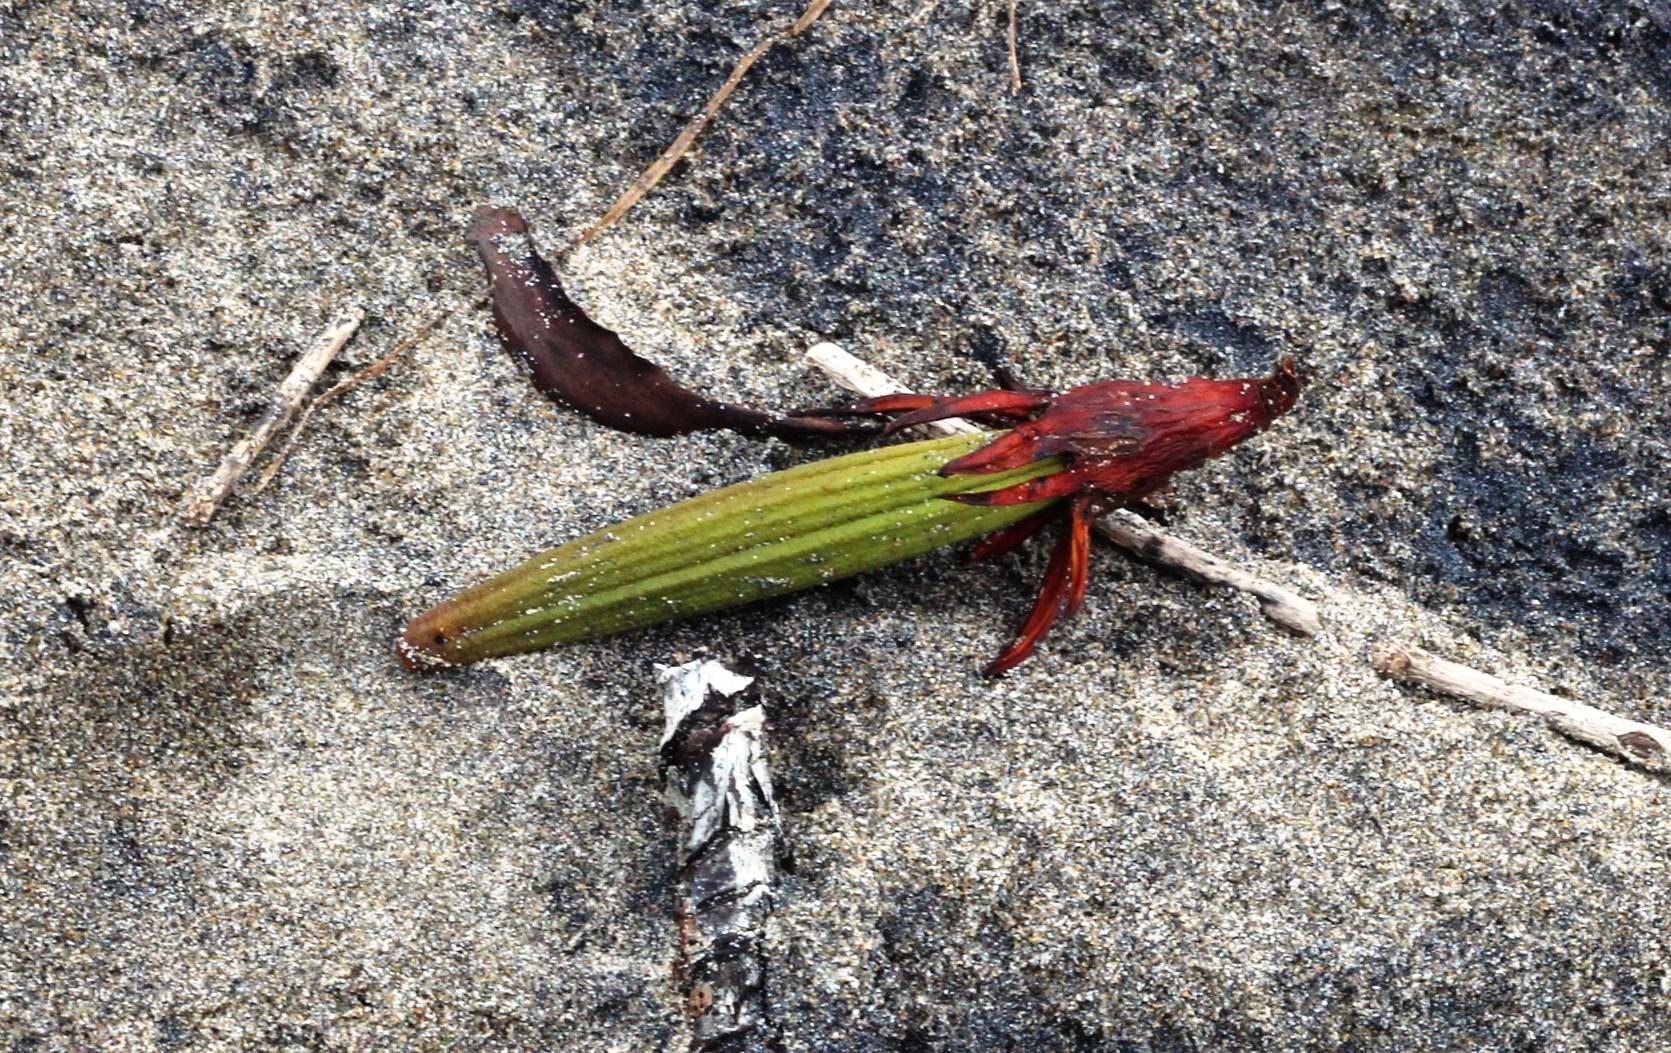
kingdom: Plantae
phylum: Tracheophyta
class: Magnoliopsida
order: Malpighiales
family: Rhizophoraceae
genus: Bruguiera
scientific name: Bruguiera gymnorhiza
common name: Oriental mangrove
